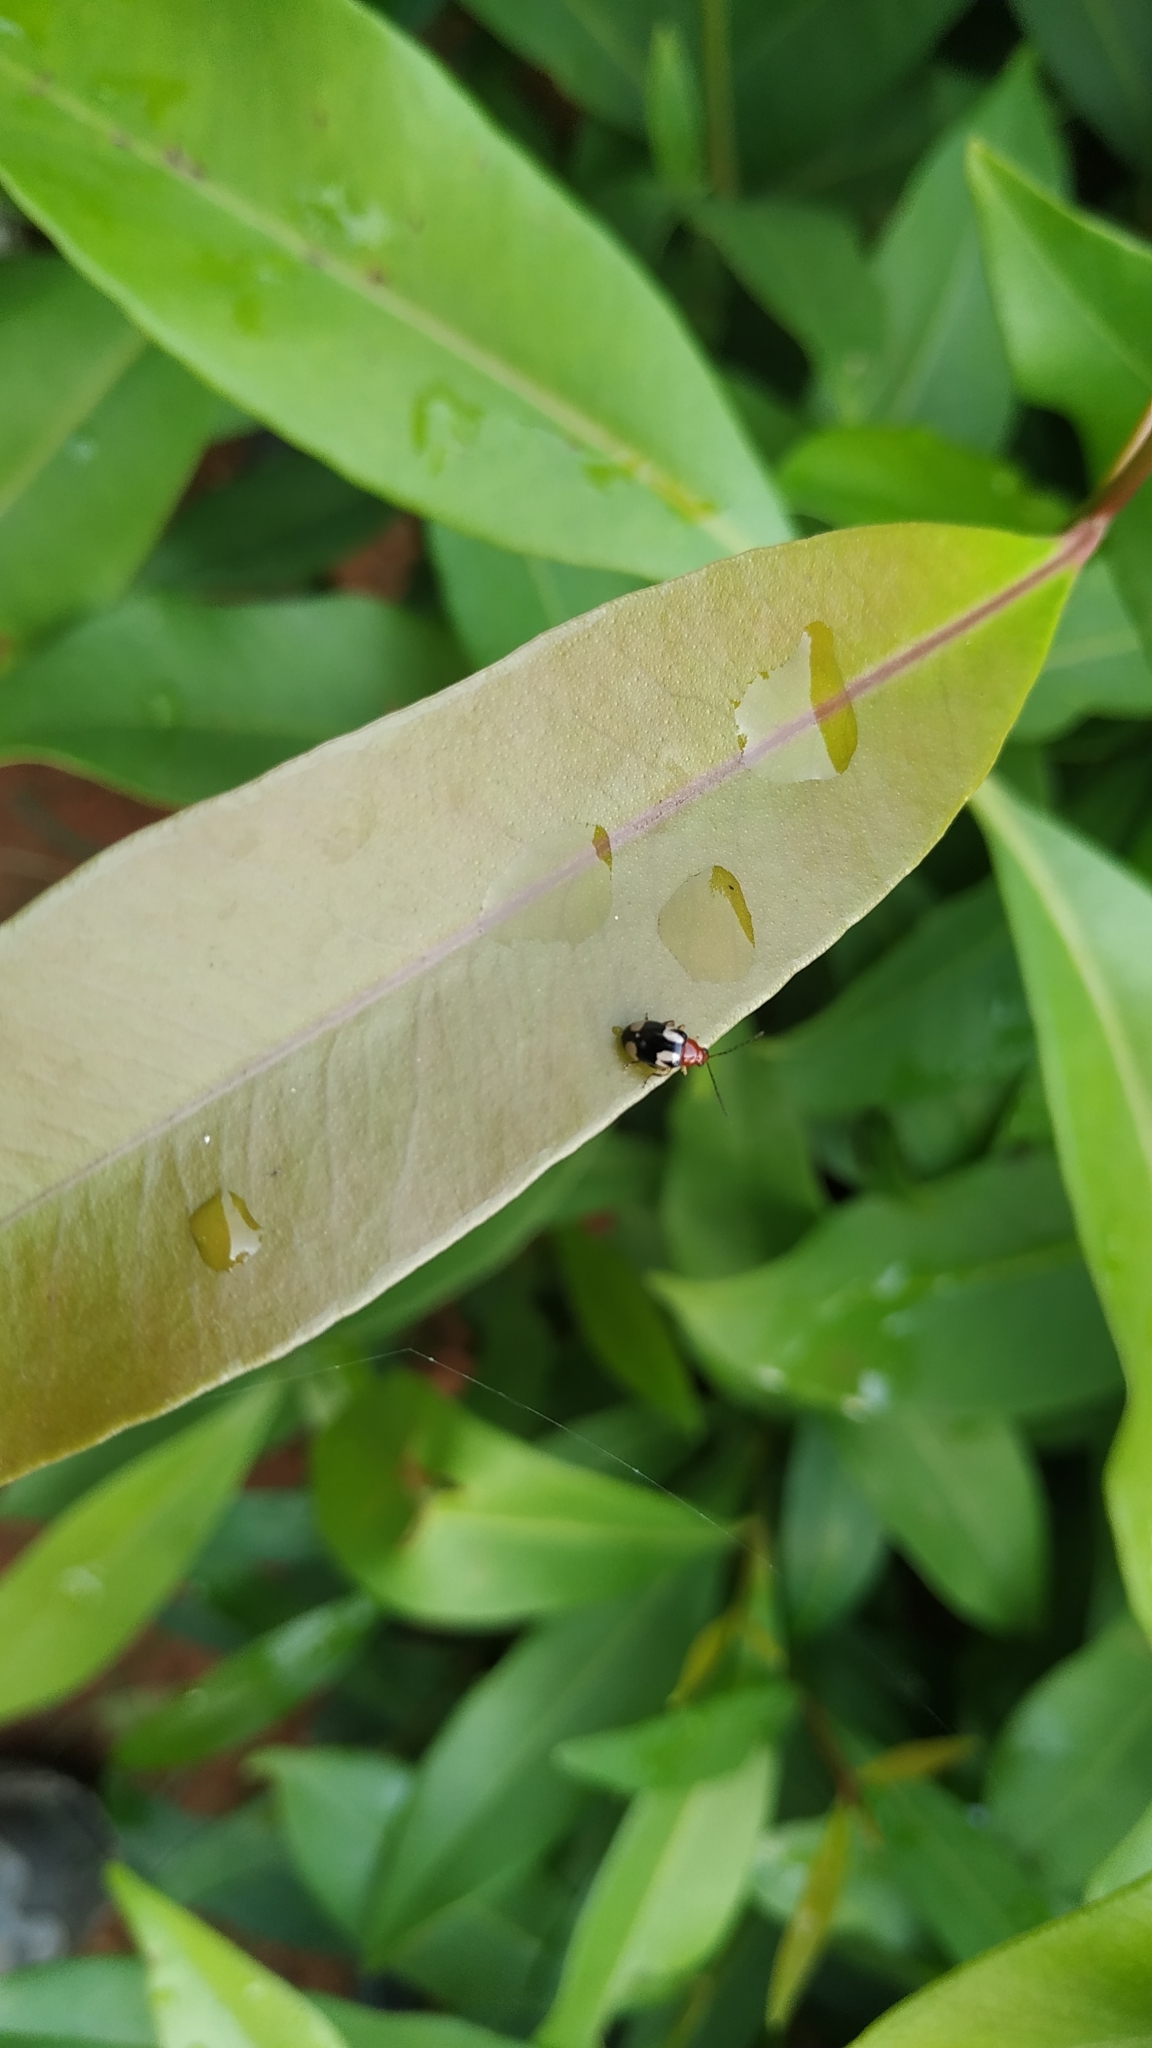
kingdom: Animalia
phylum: Arthropoda
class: Insecta
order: Coleoptera
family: Chrysomelidae
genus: Monolepta
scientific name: Monolepta signata
